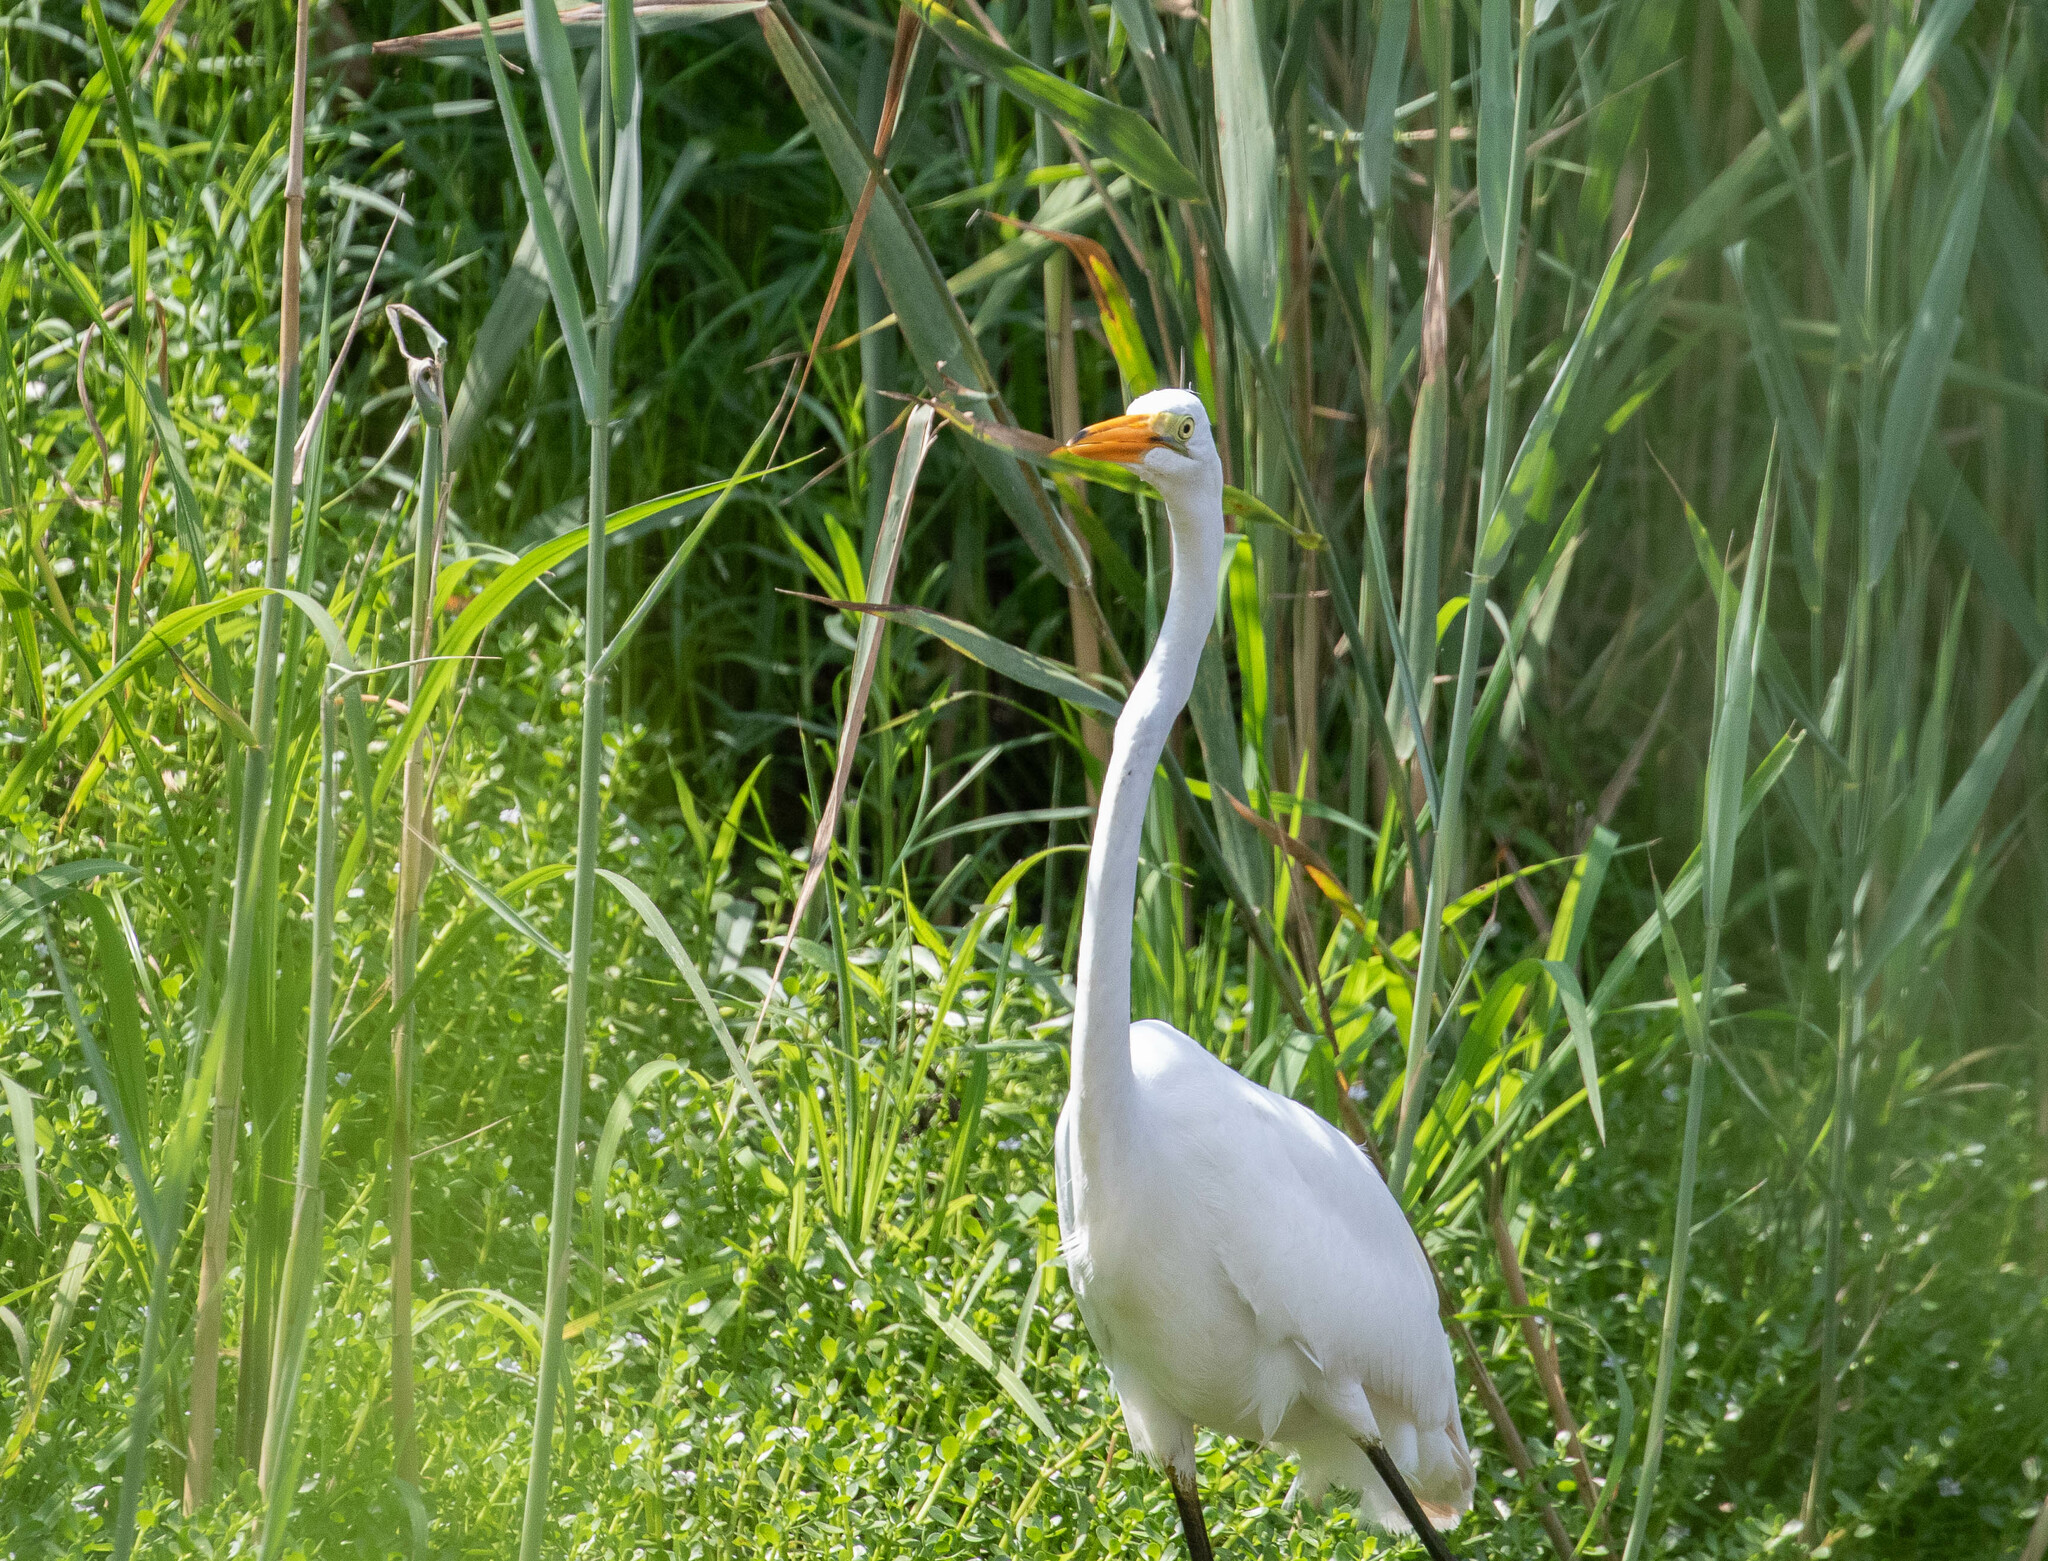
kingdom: Animalia
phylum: Chordata
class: Aves
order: Pelecaniformes
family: Ardeidae
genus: Ardea
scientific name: Ardea alba
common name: Great egret
